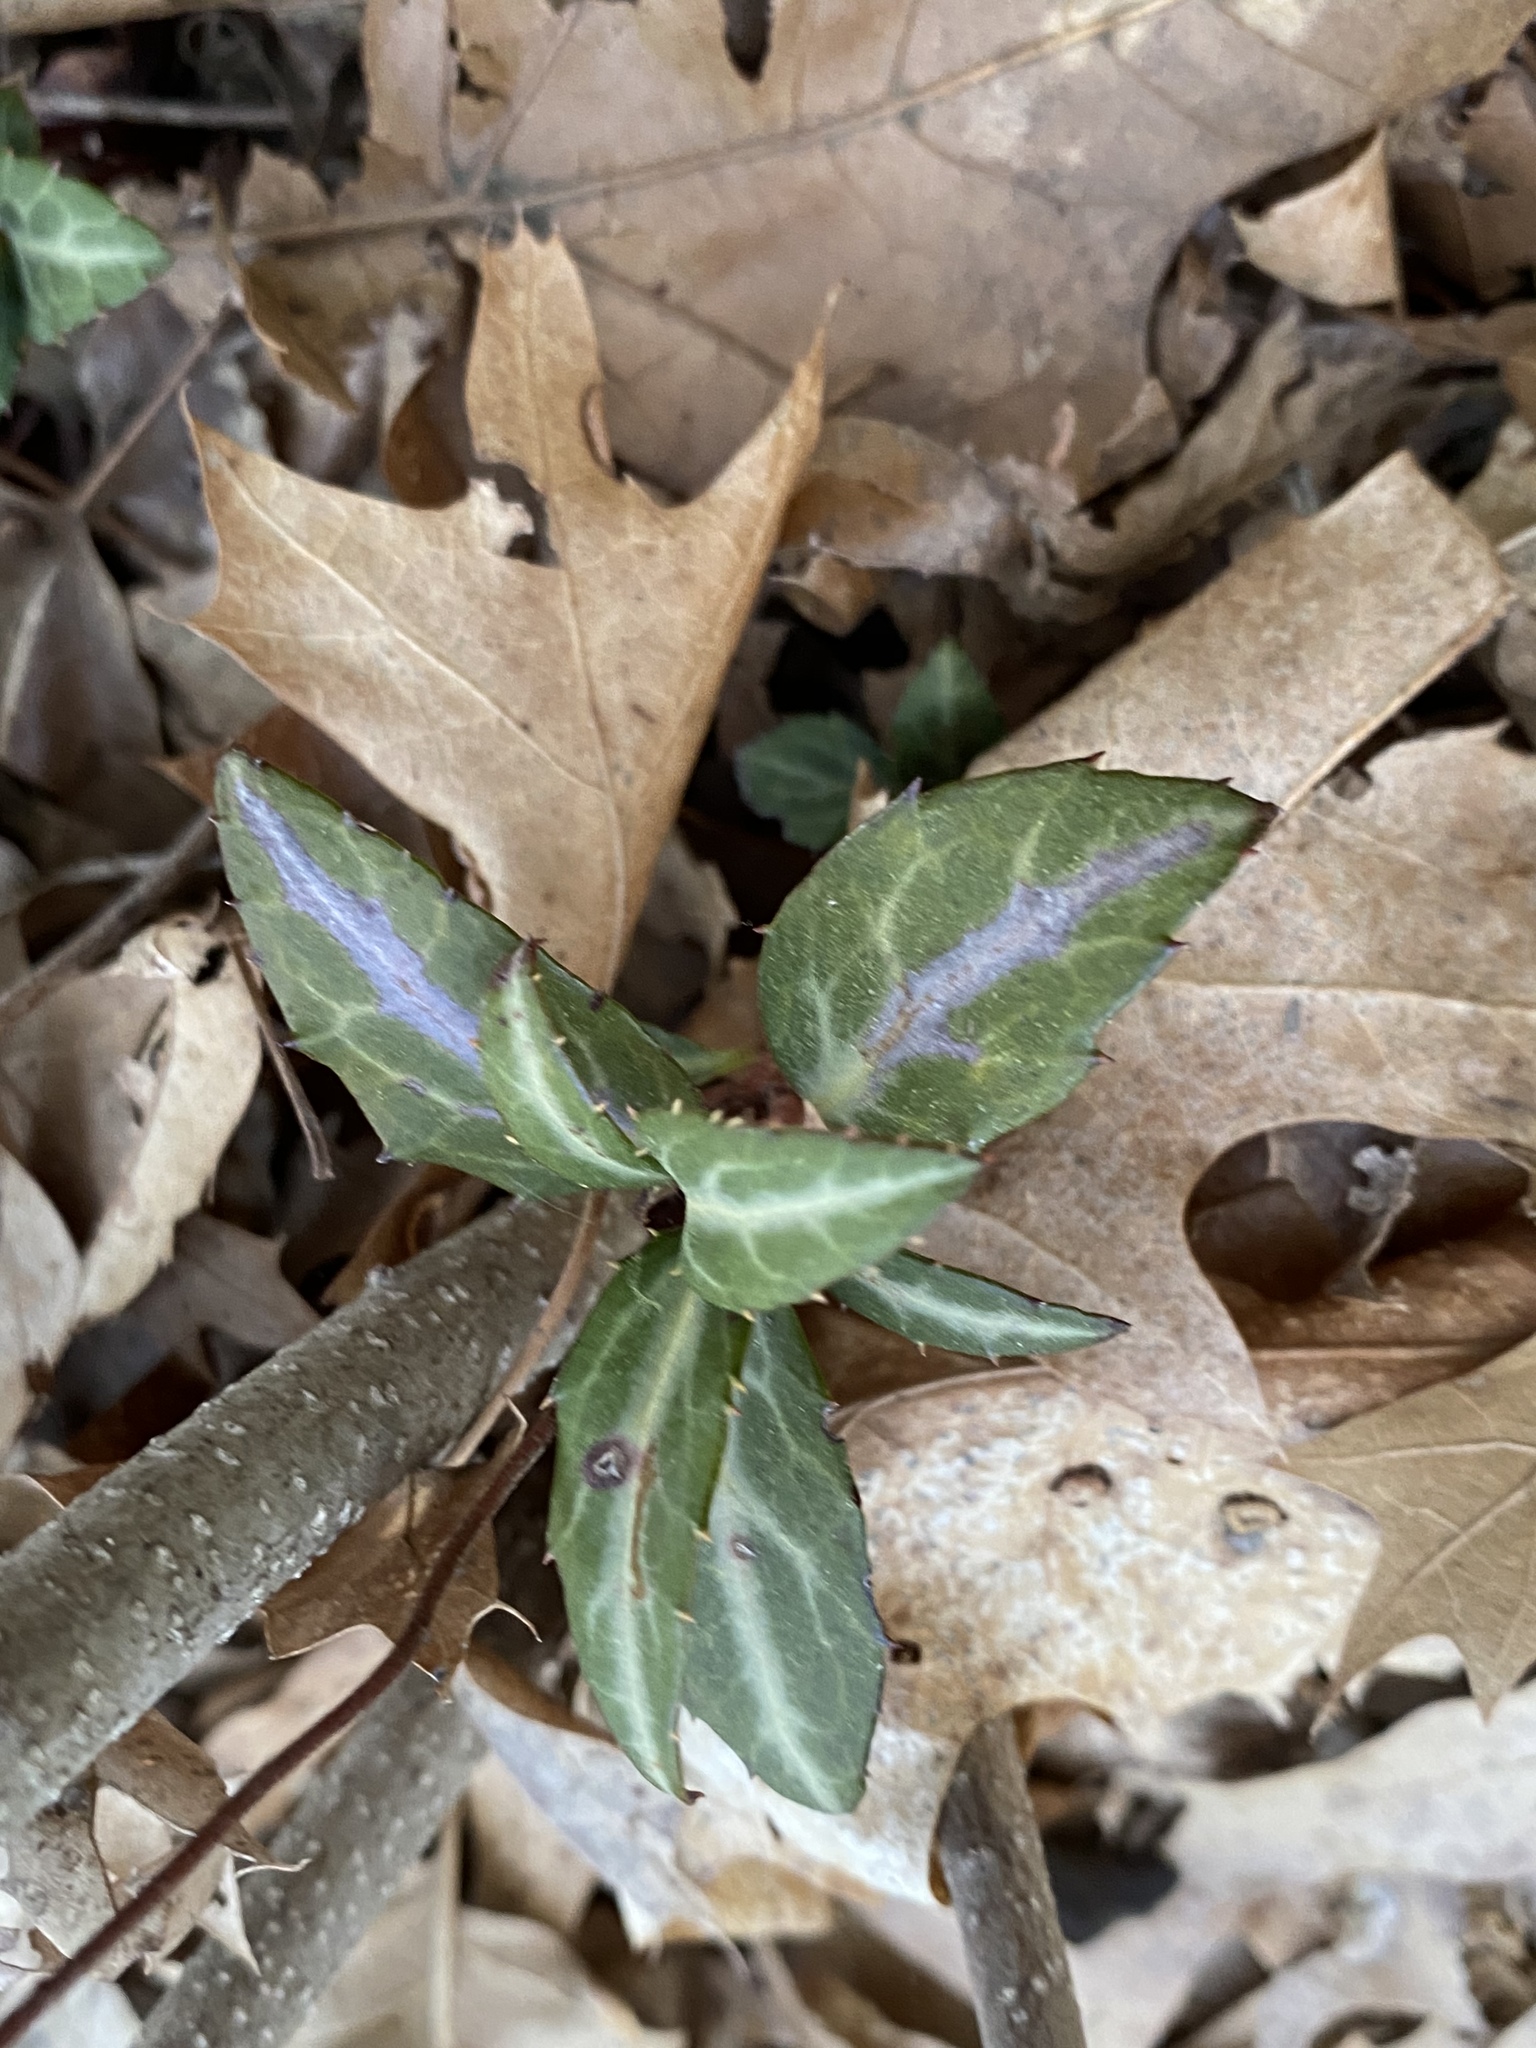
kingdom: Plantae
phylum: Tracheophyta
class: Magnoliopsida
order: Ericales
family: Ericaceae
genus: Chimaphila
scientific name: Chimaphila maculata
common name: Spotted pipsissewa
